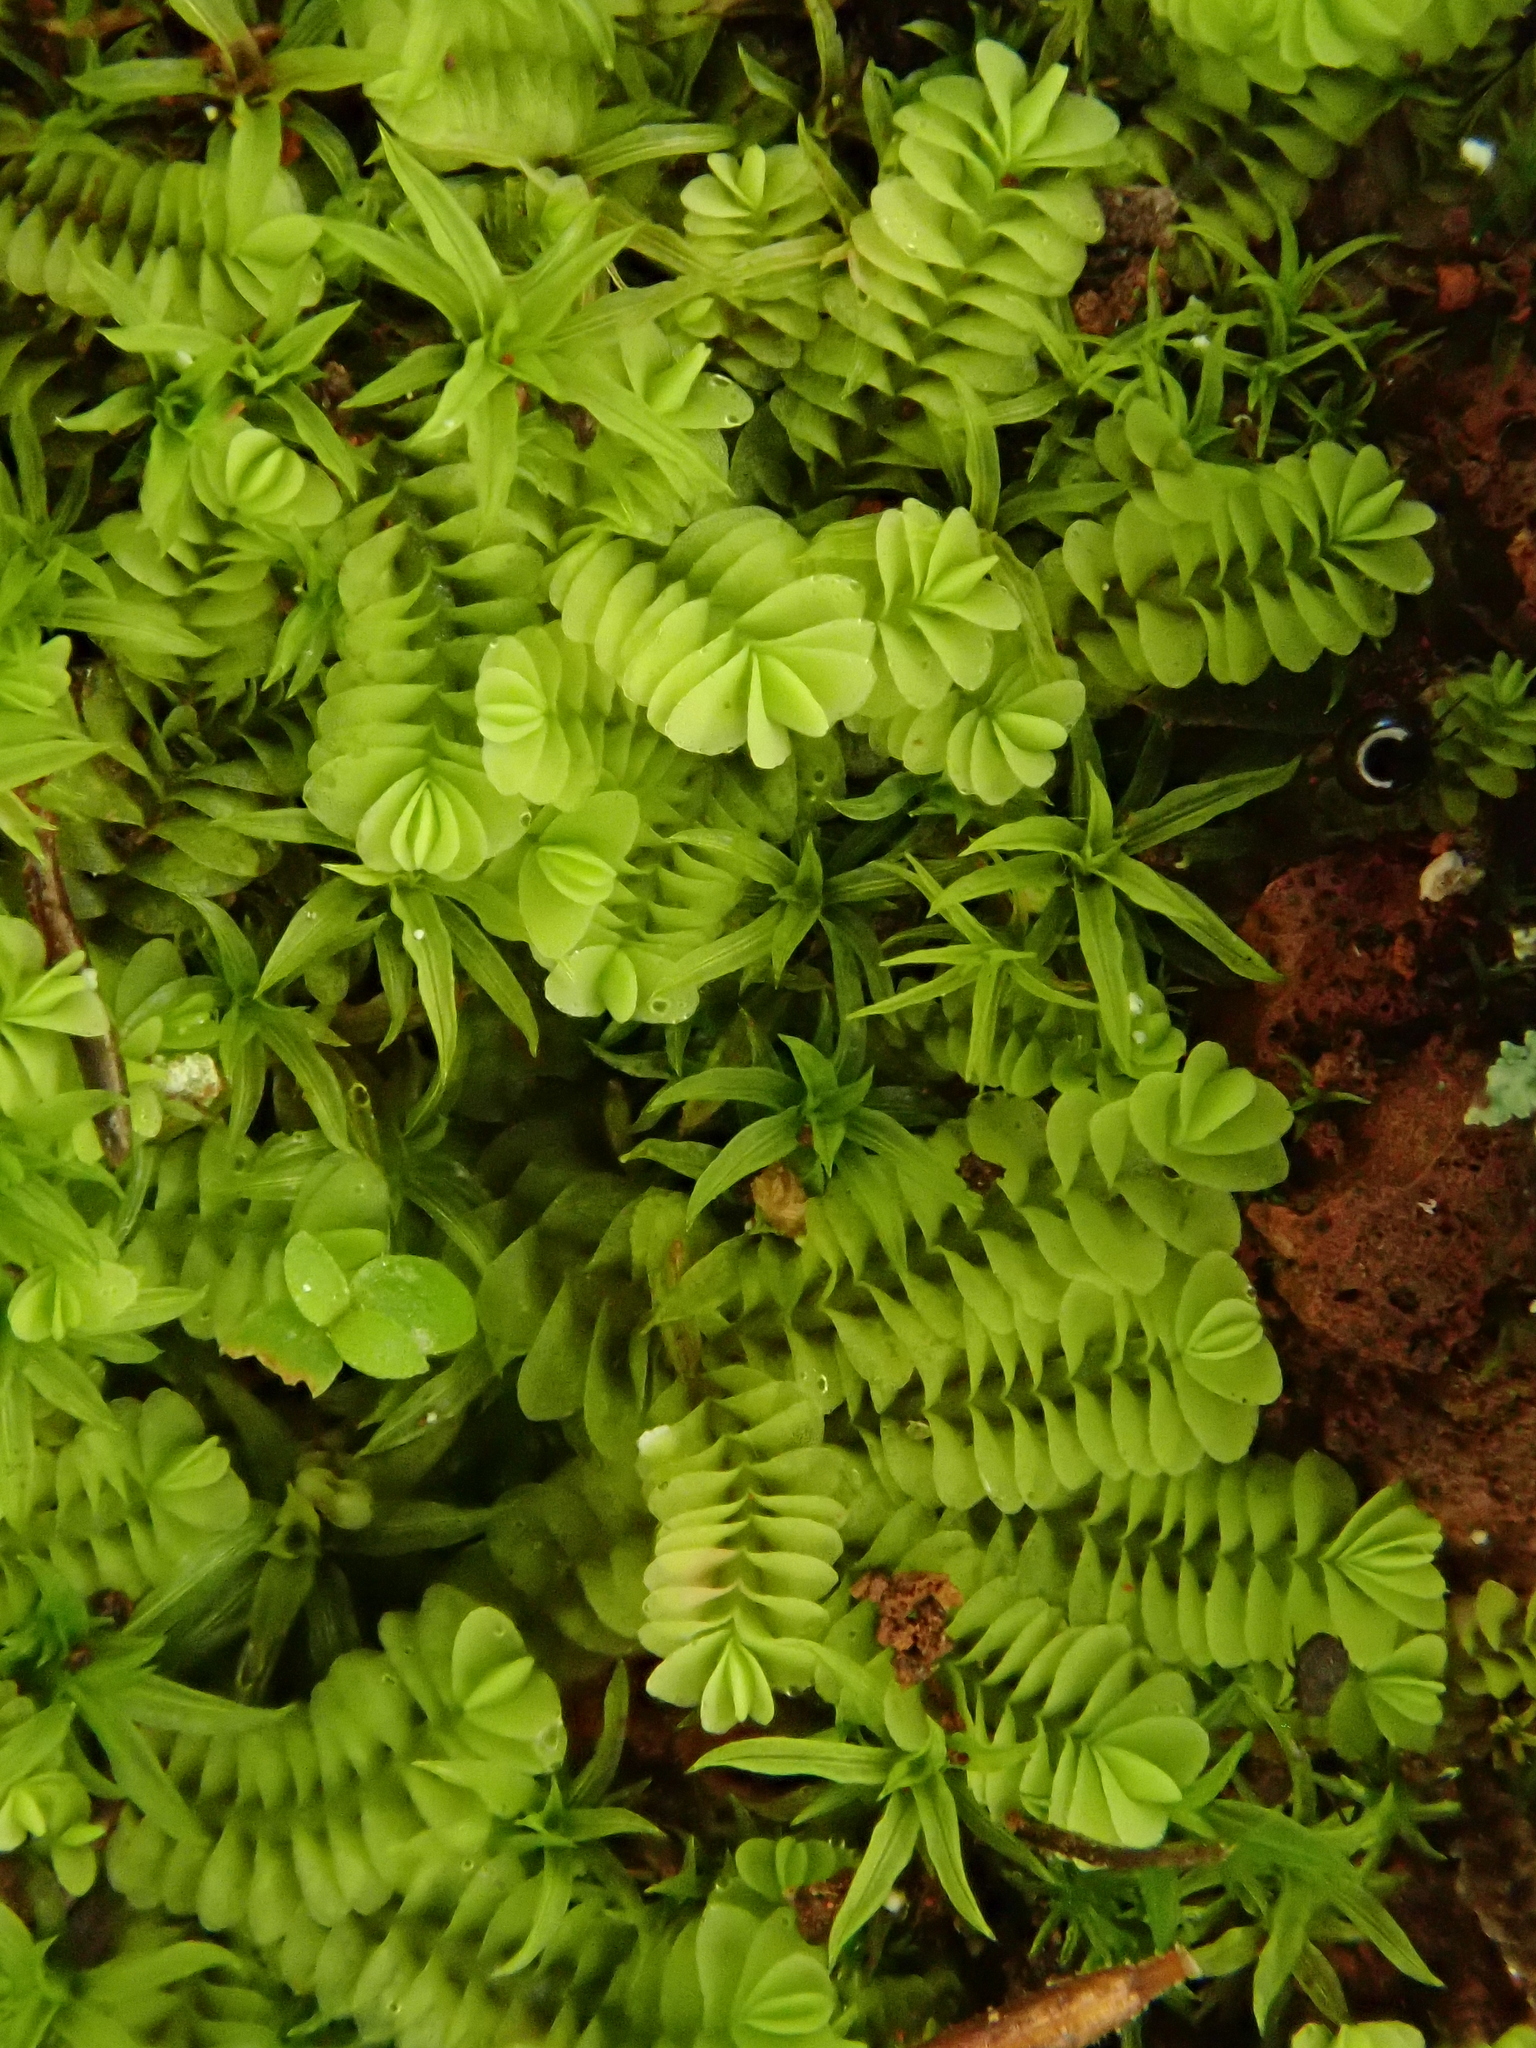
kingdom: Plantae
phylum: Marchantiophyta
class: Jungermanniopsida
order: Jungermanniales
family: Southbyaceae
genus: Gongylanthus
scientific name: Gongylanthus ericetorum
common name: Heath pouchwort
